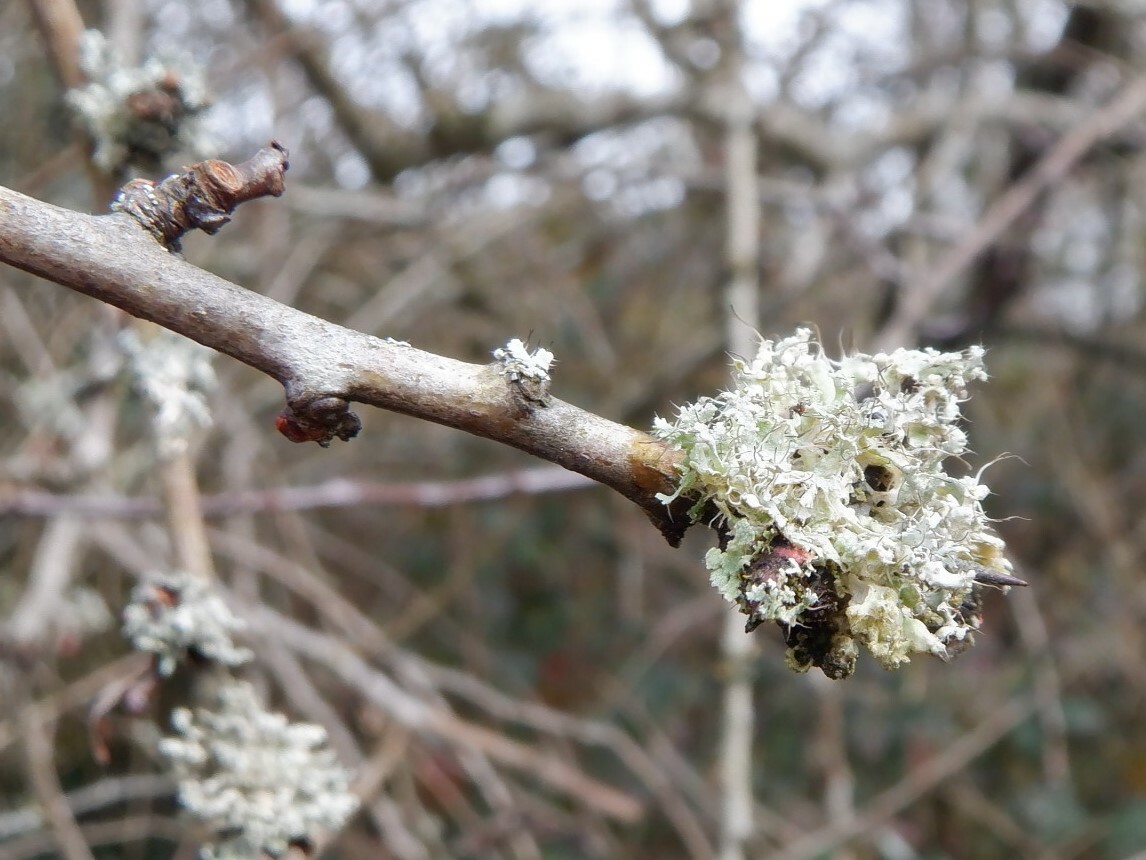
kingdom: Fungi
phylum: Ascomycota
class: Lecanoromycetes
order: Caliciales
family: Physciaceae
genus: Physcia
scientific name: Physcia adscendens
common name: Hooded rosette lichen
